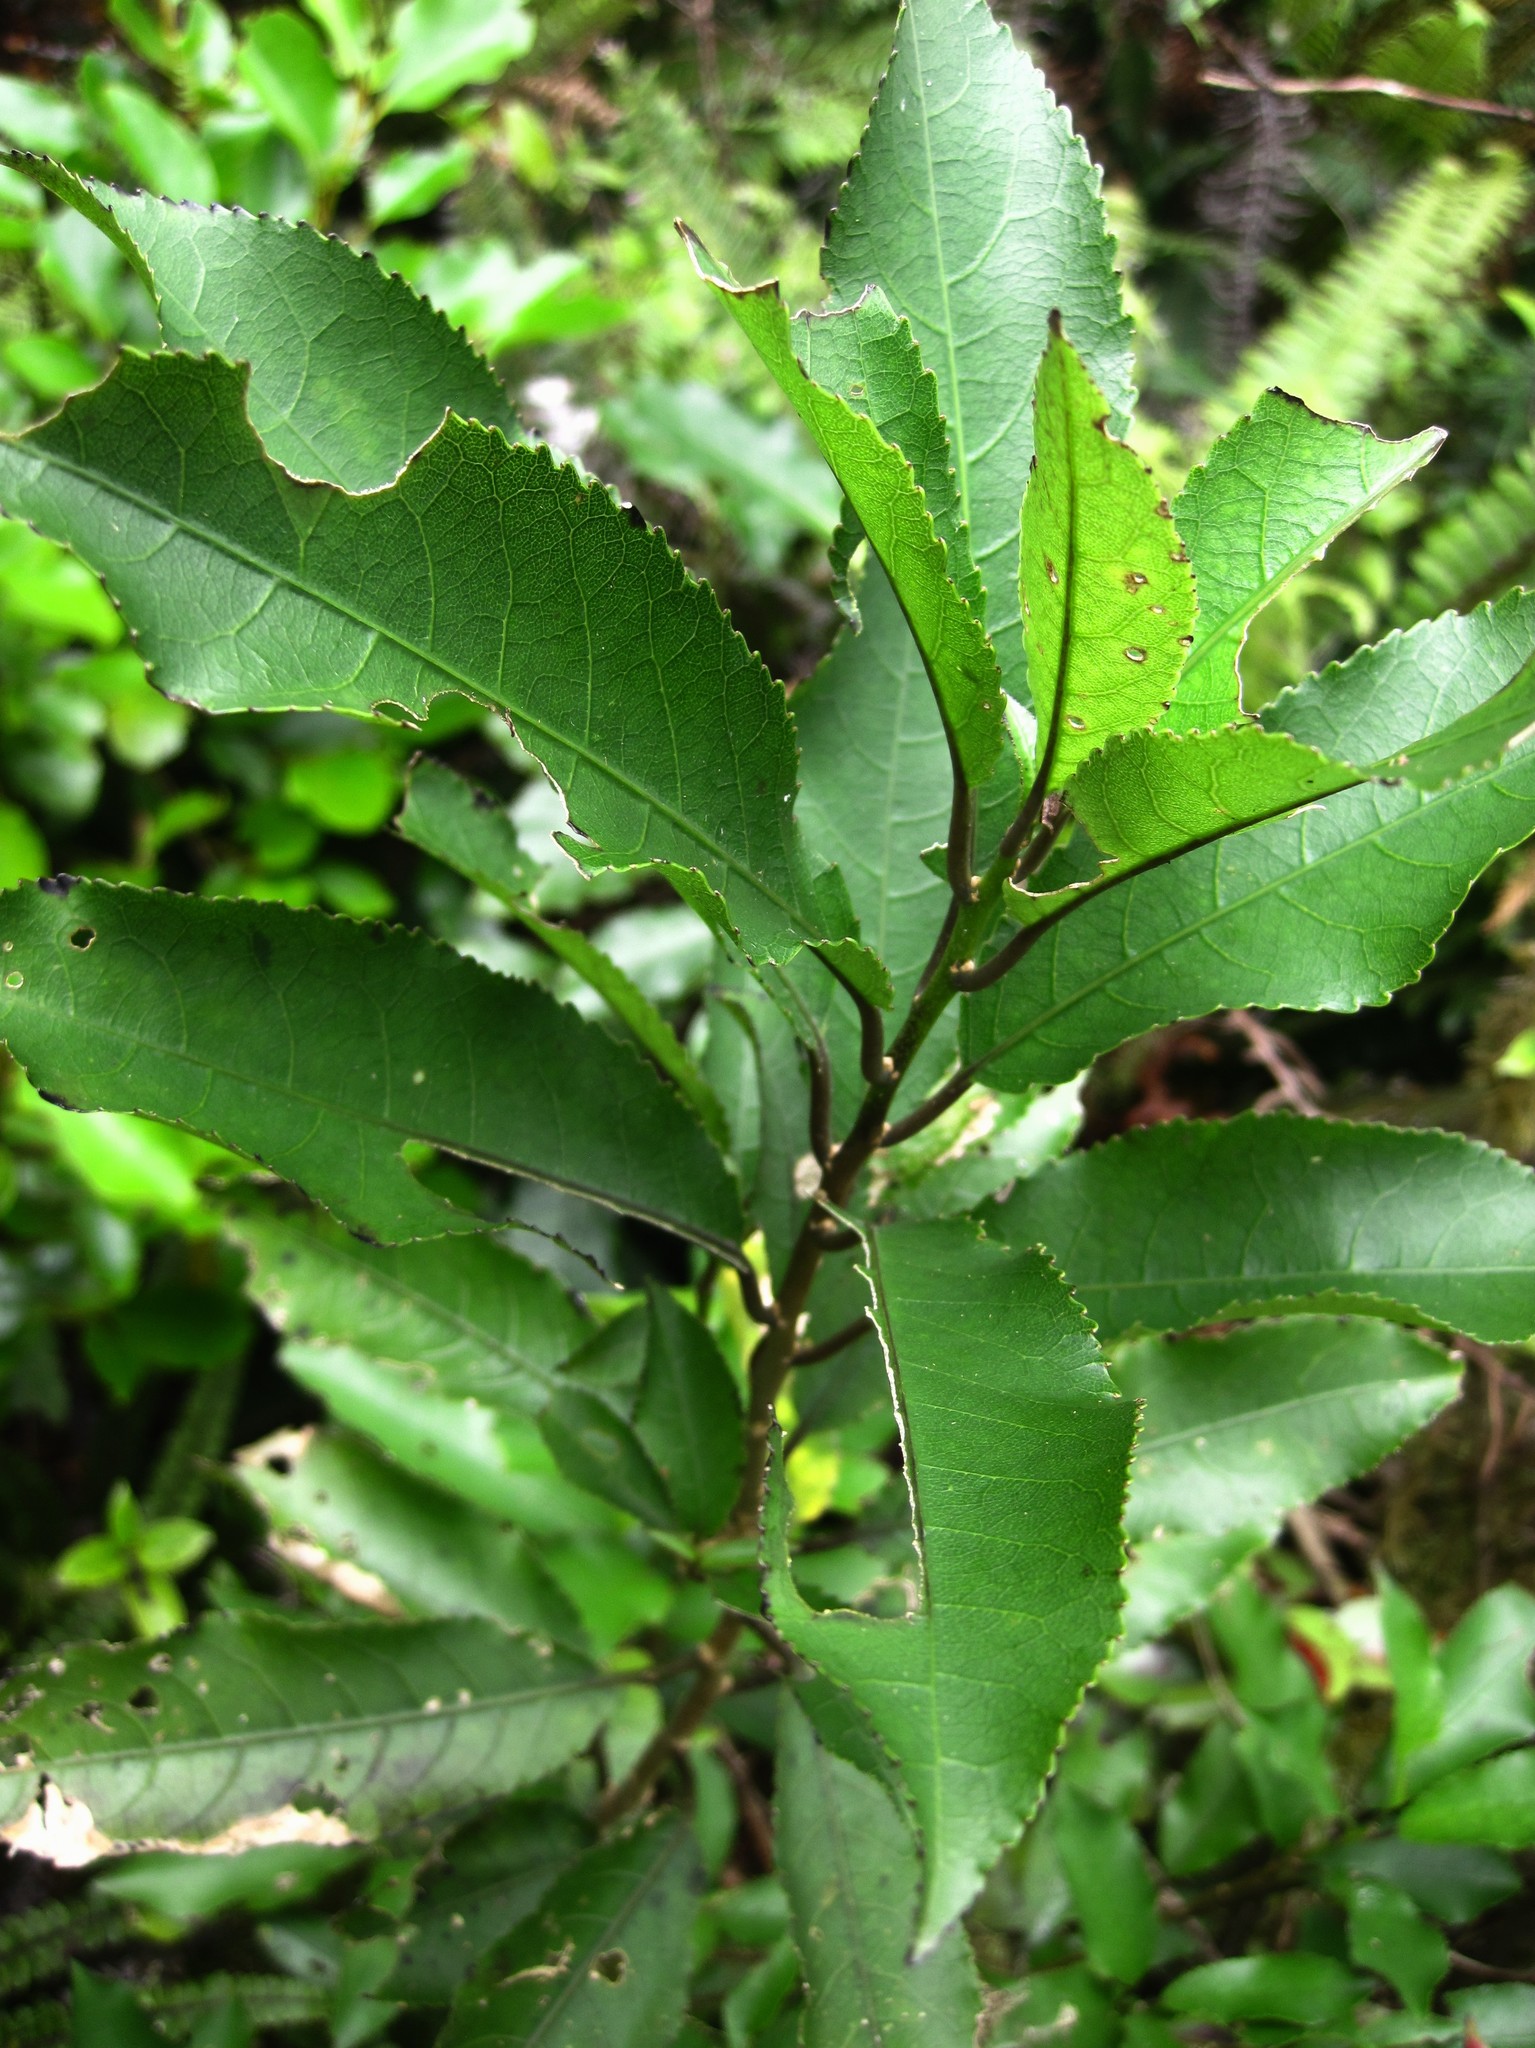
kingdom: Plantae
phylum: Tracheophyta
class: Magnoliopsida
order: Malpighiales
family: Violaceae
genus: Melicytus
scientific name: Melicytus ramiflorus
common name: Mahoe
